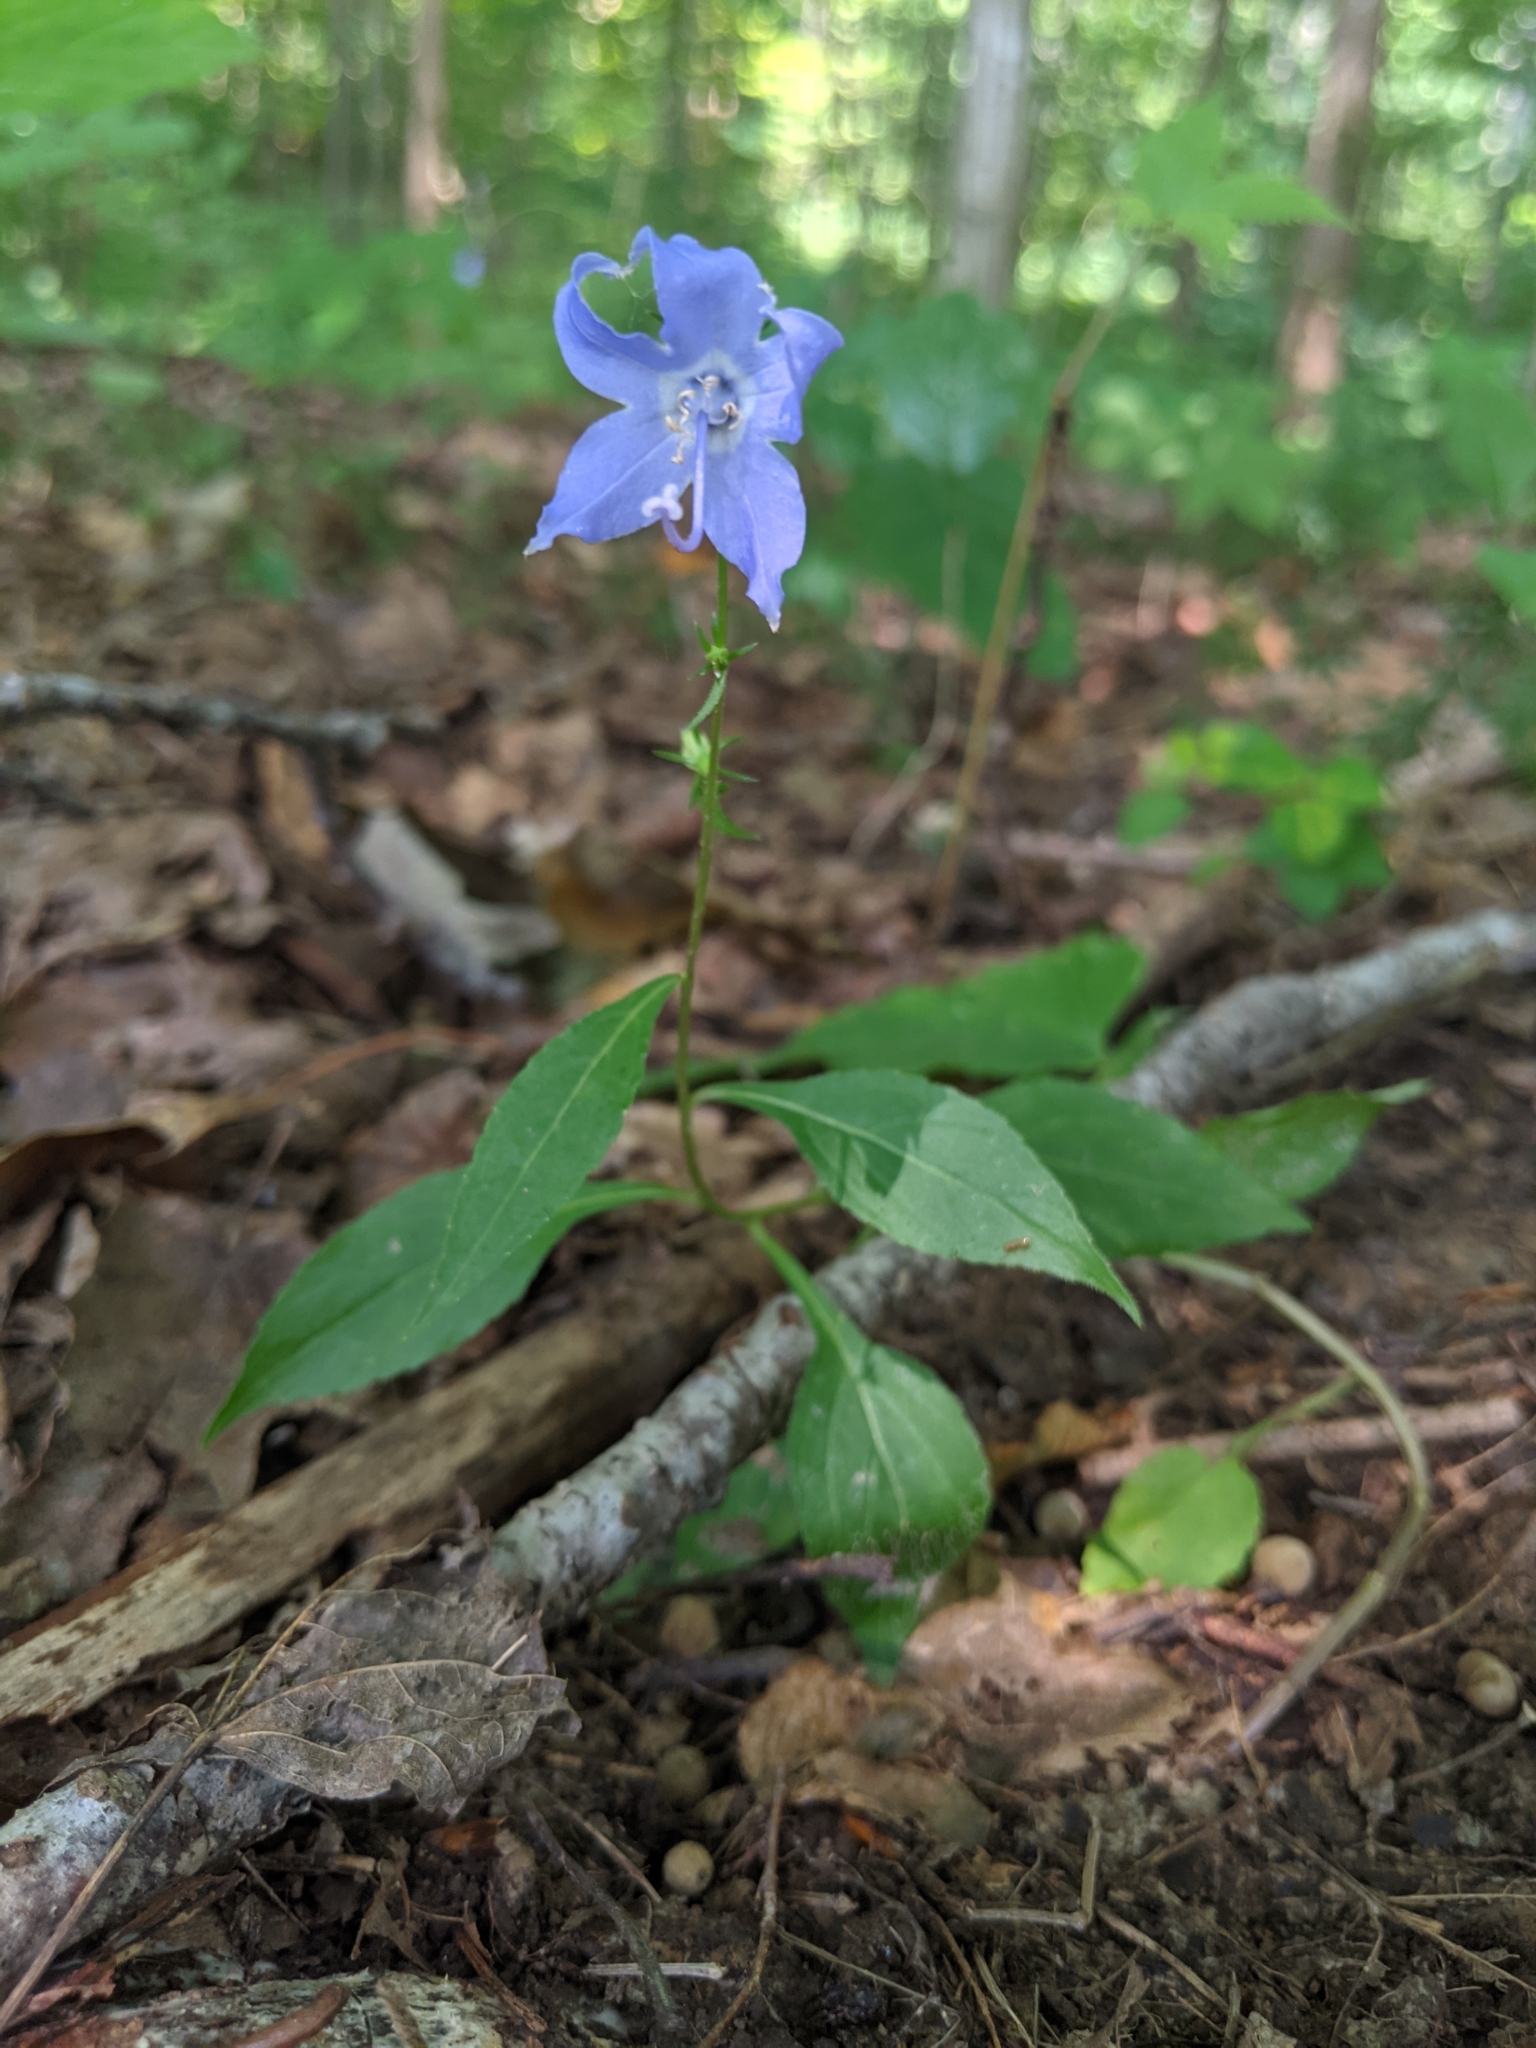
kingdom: Plantae
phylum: Tracheophyta
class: Magnoliopsida
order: Asterales
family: Campanulaceae
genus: Campanulastrum
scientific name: Campanulastrum americanum
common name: American bellflower
